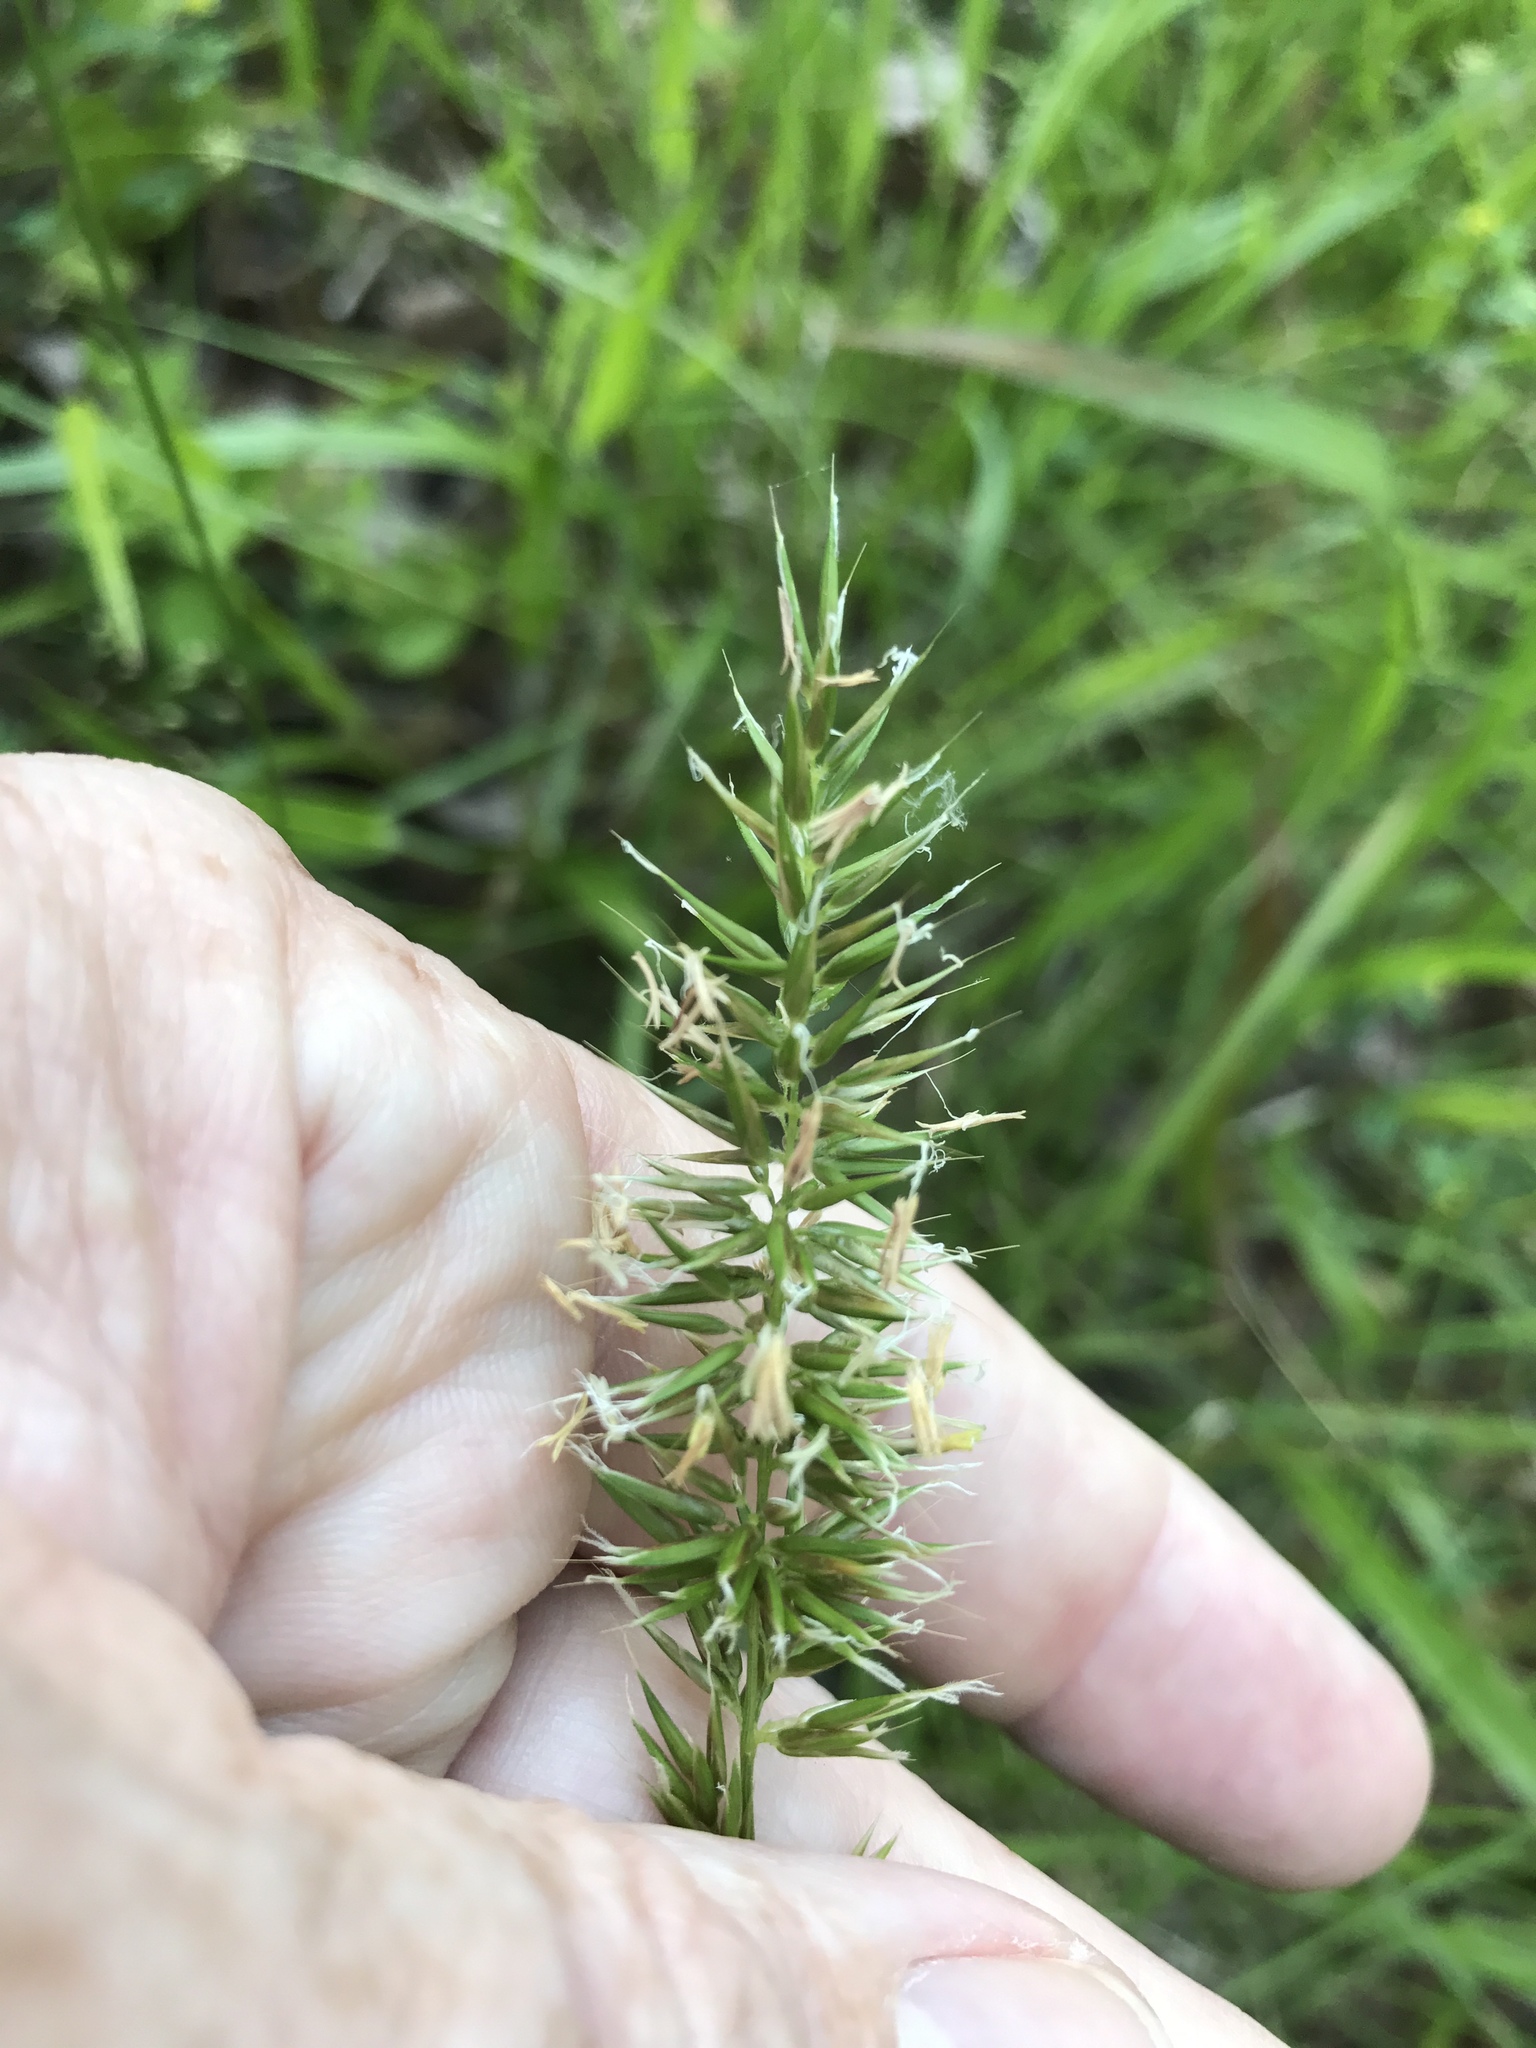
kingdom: Plantae
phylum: Tracheophyta
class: Liliopsida
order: Poales
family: Poaceae
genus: Anthoxanthum
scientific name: Anthoxanthum odoratum
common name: Sweet vernalgrass
